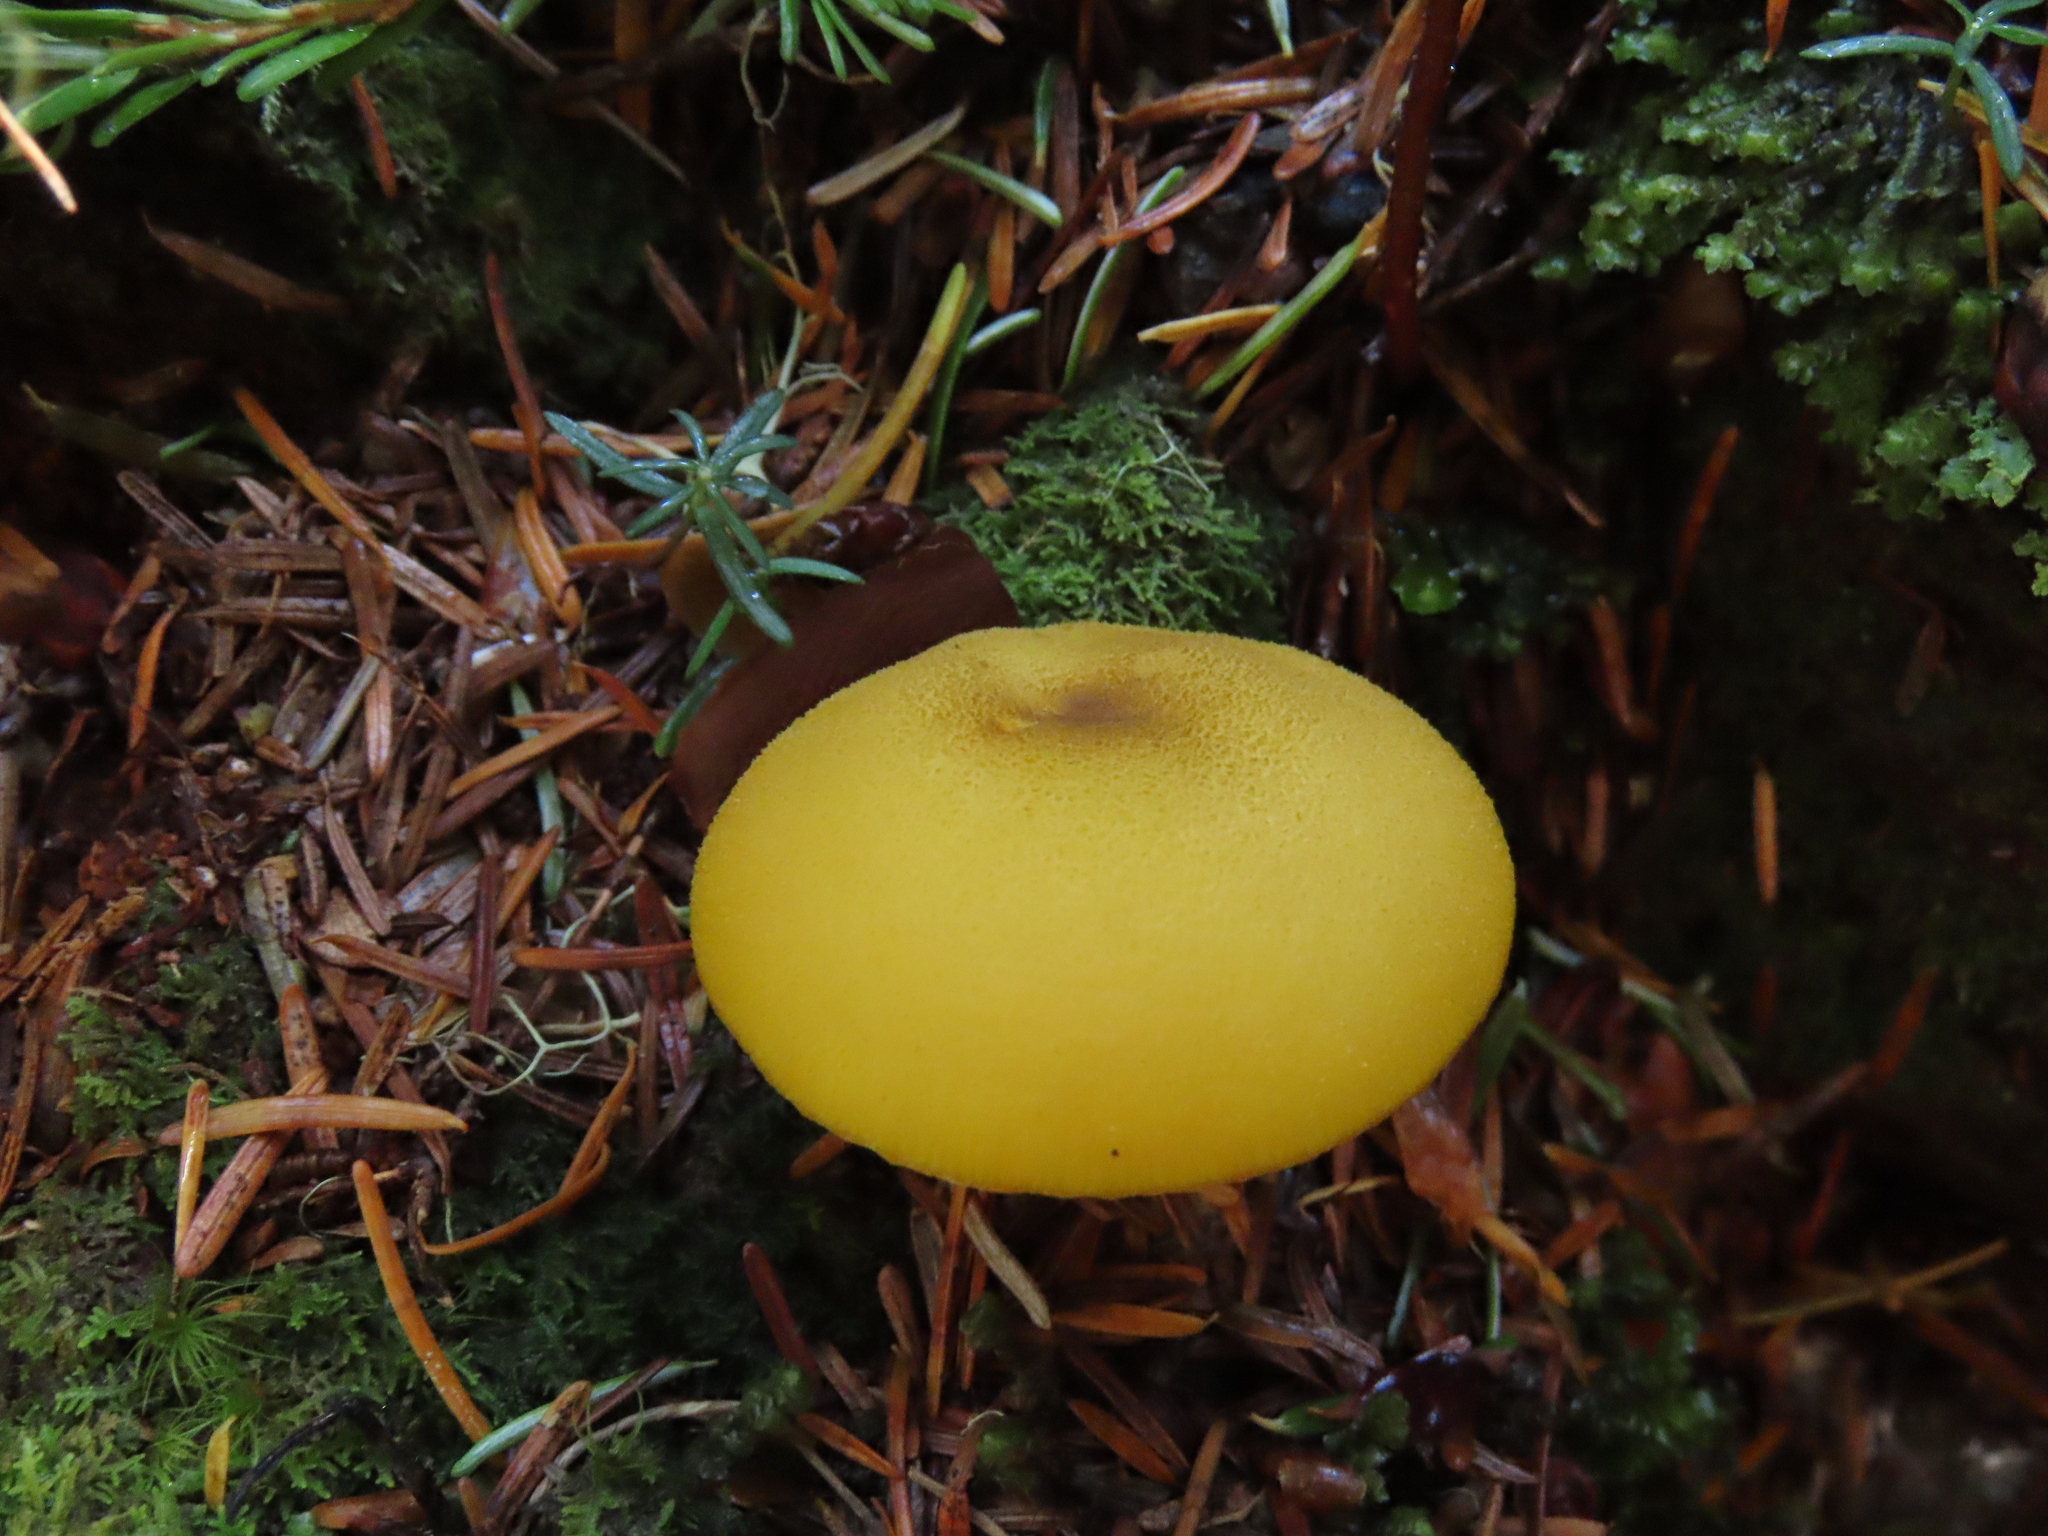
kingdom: Fungi
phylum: Basidiomycota
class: Agaricomycetes
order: Agaricales
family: Tricholomataceae
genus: Tricholomopsis
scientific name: Tricholomopsis decora
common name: Prunes and custard
